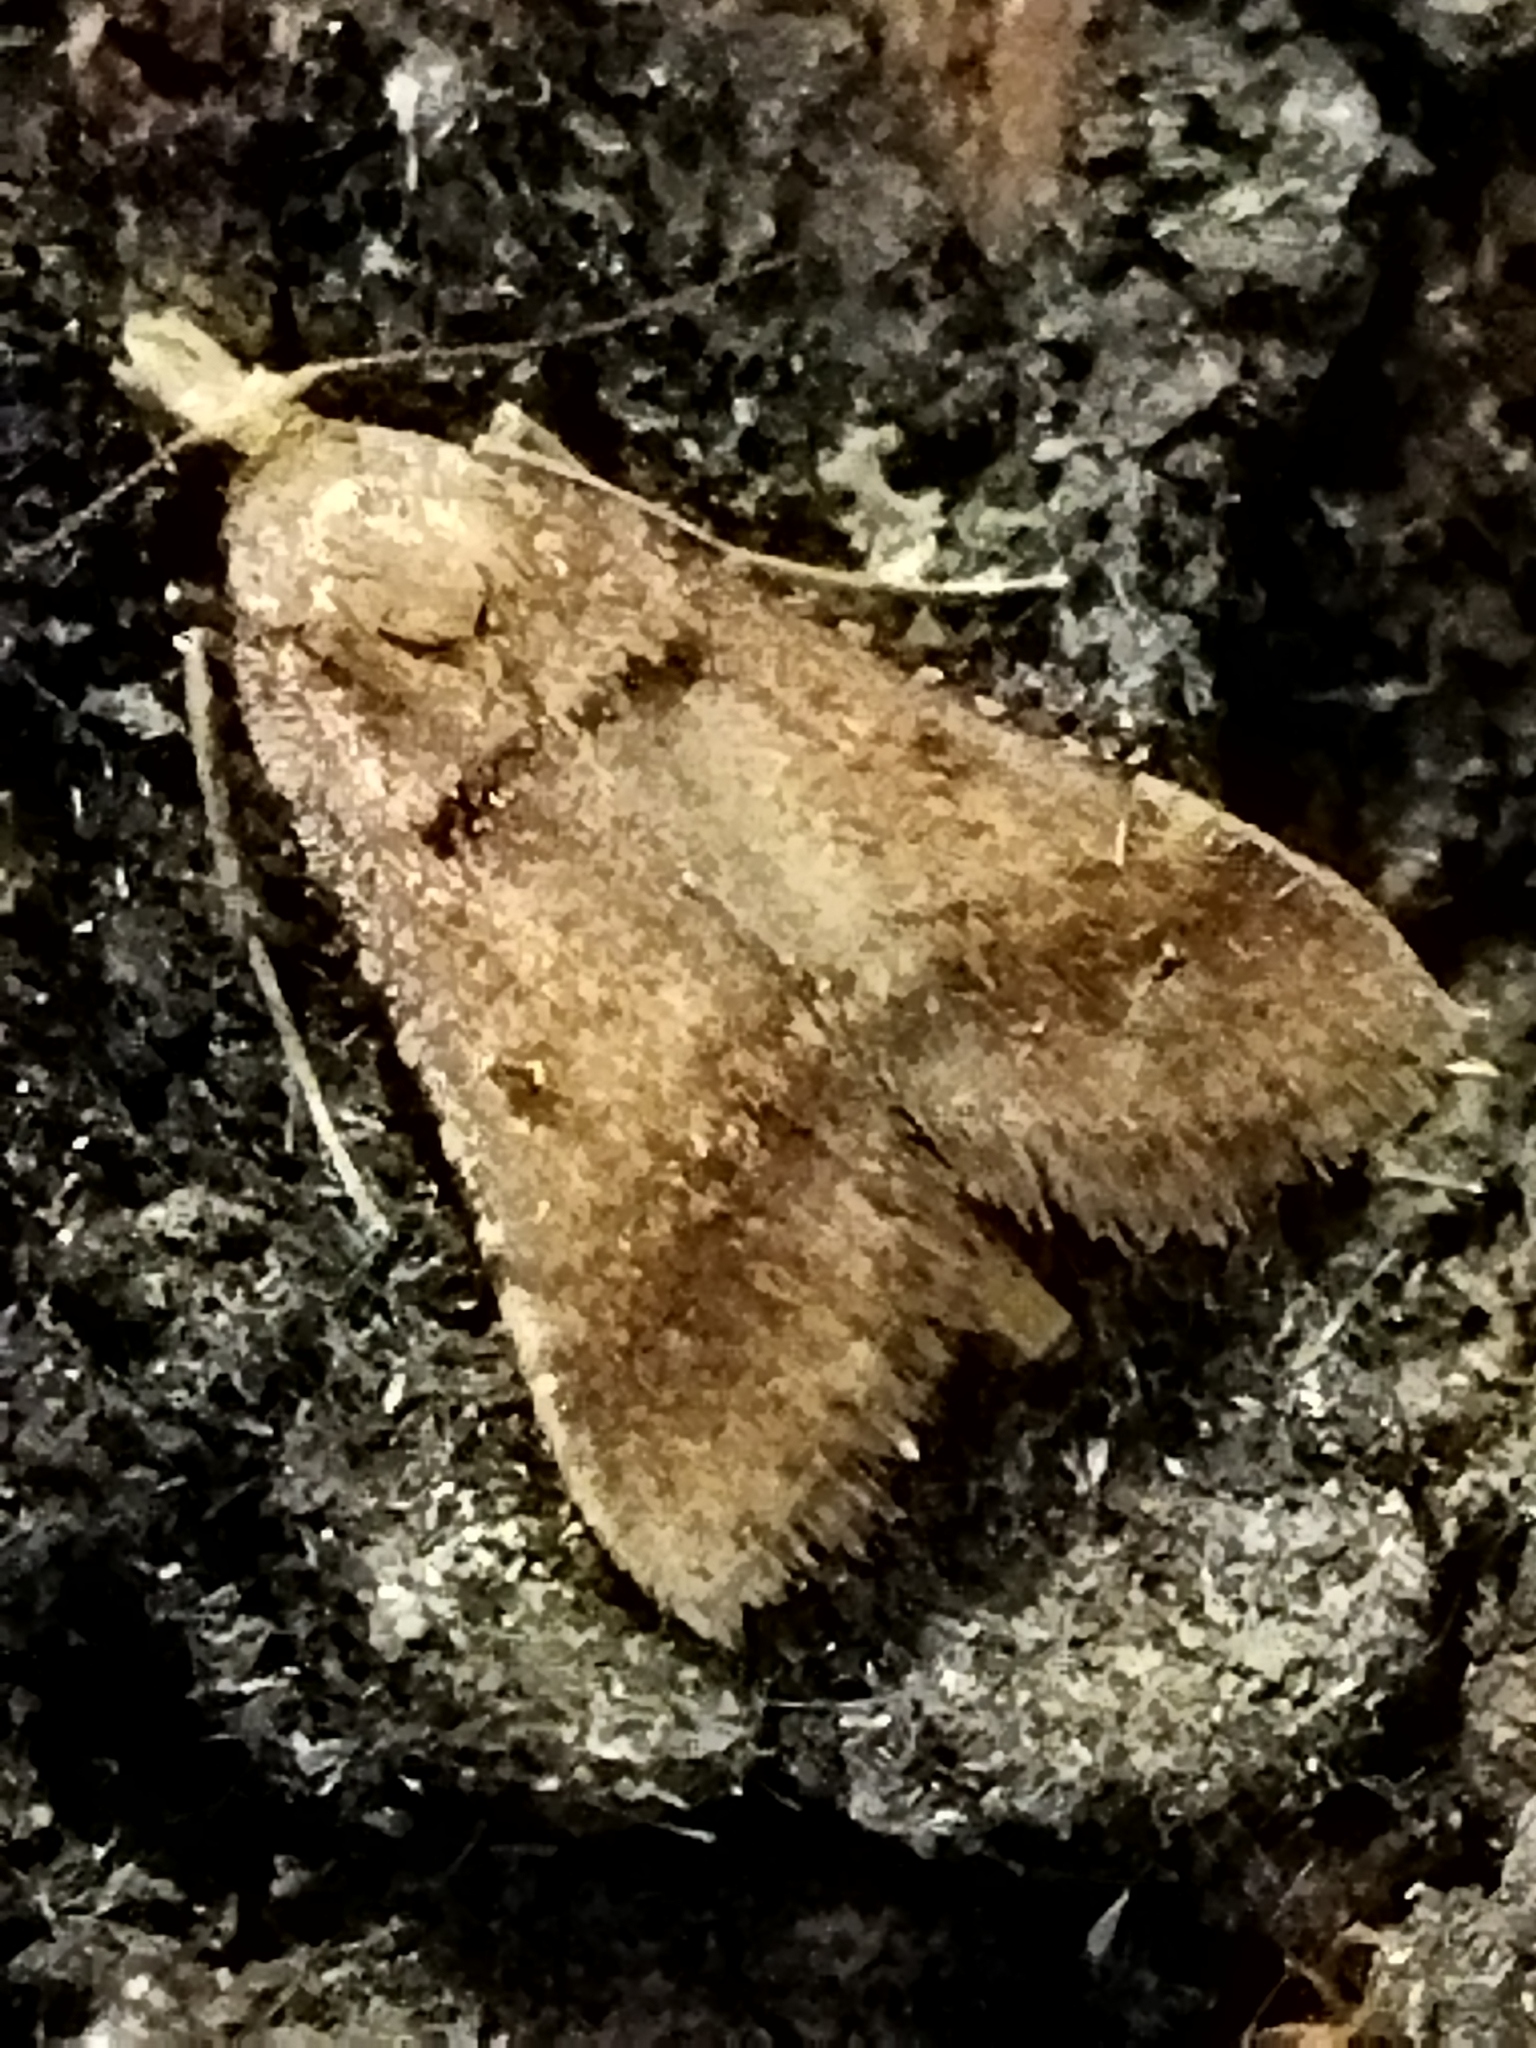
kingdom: Animalia
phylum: Arthropoda
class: Insecta
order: Lepidoptera
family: Pyralidae
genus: Stemmatophora
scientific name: Stemmatophora brunnealis
